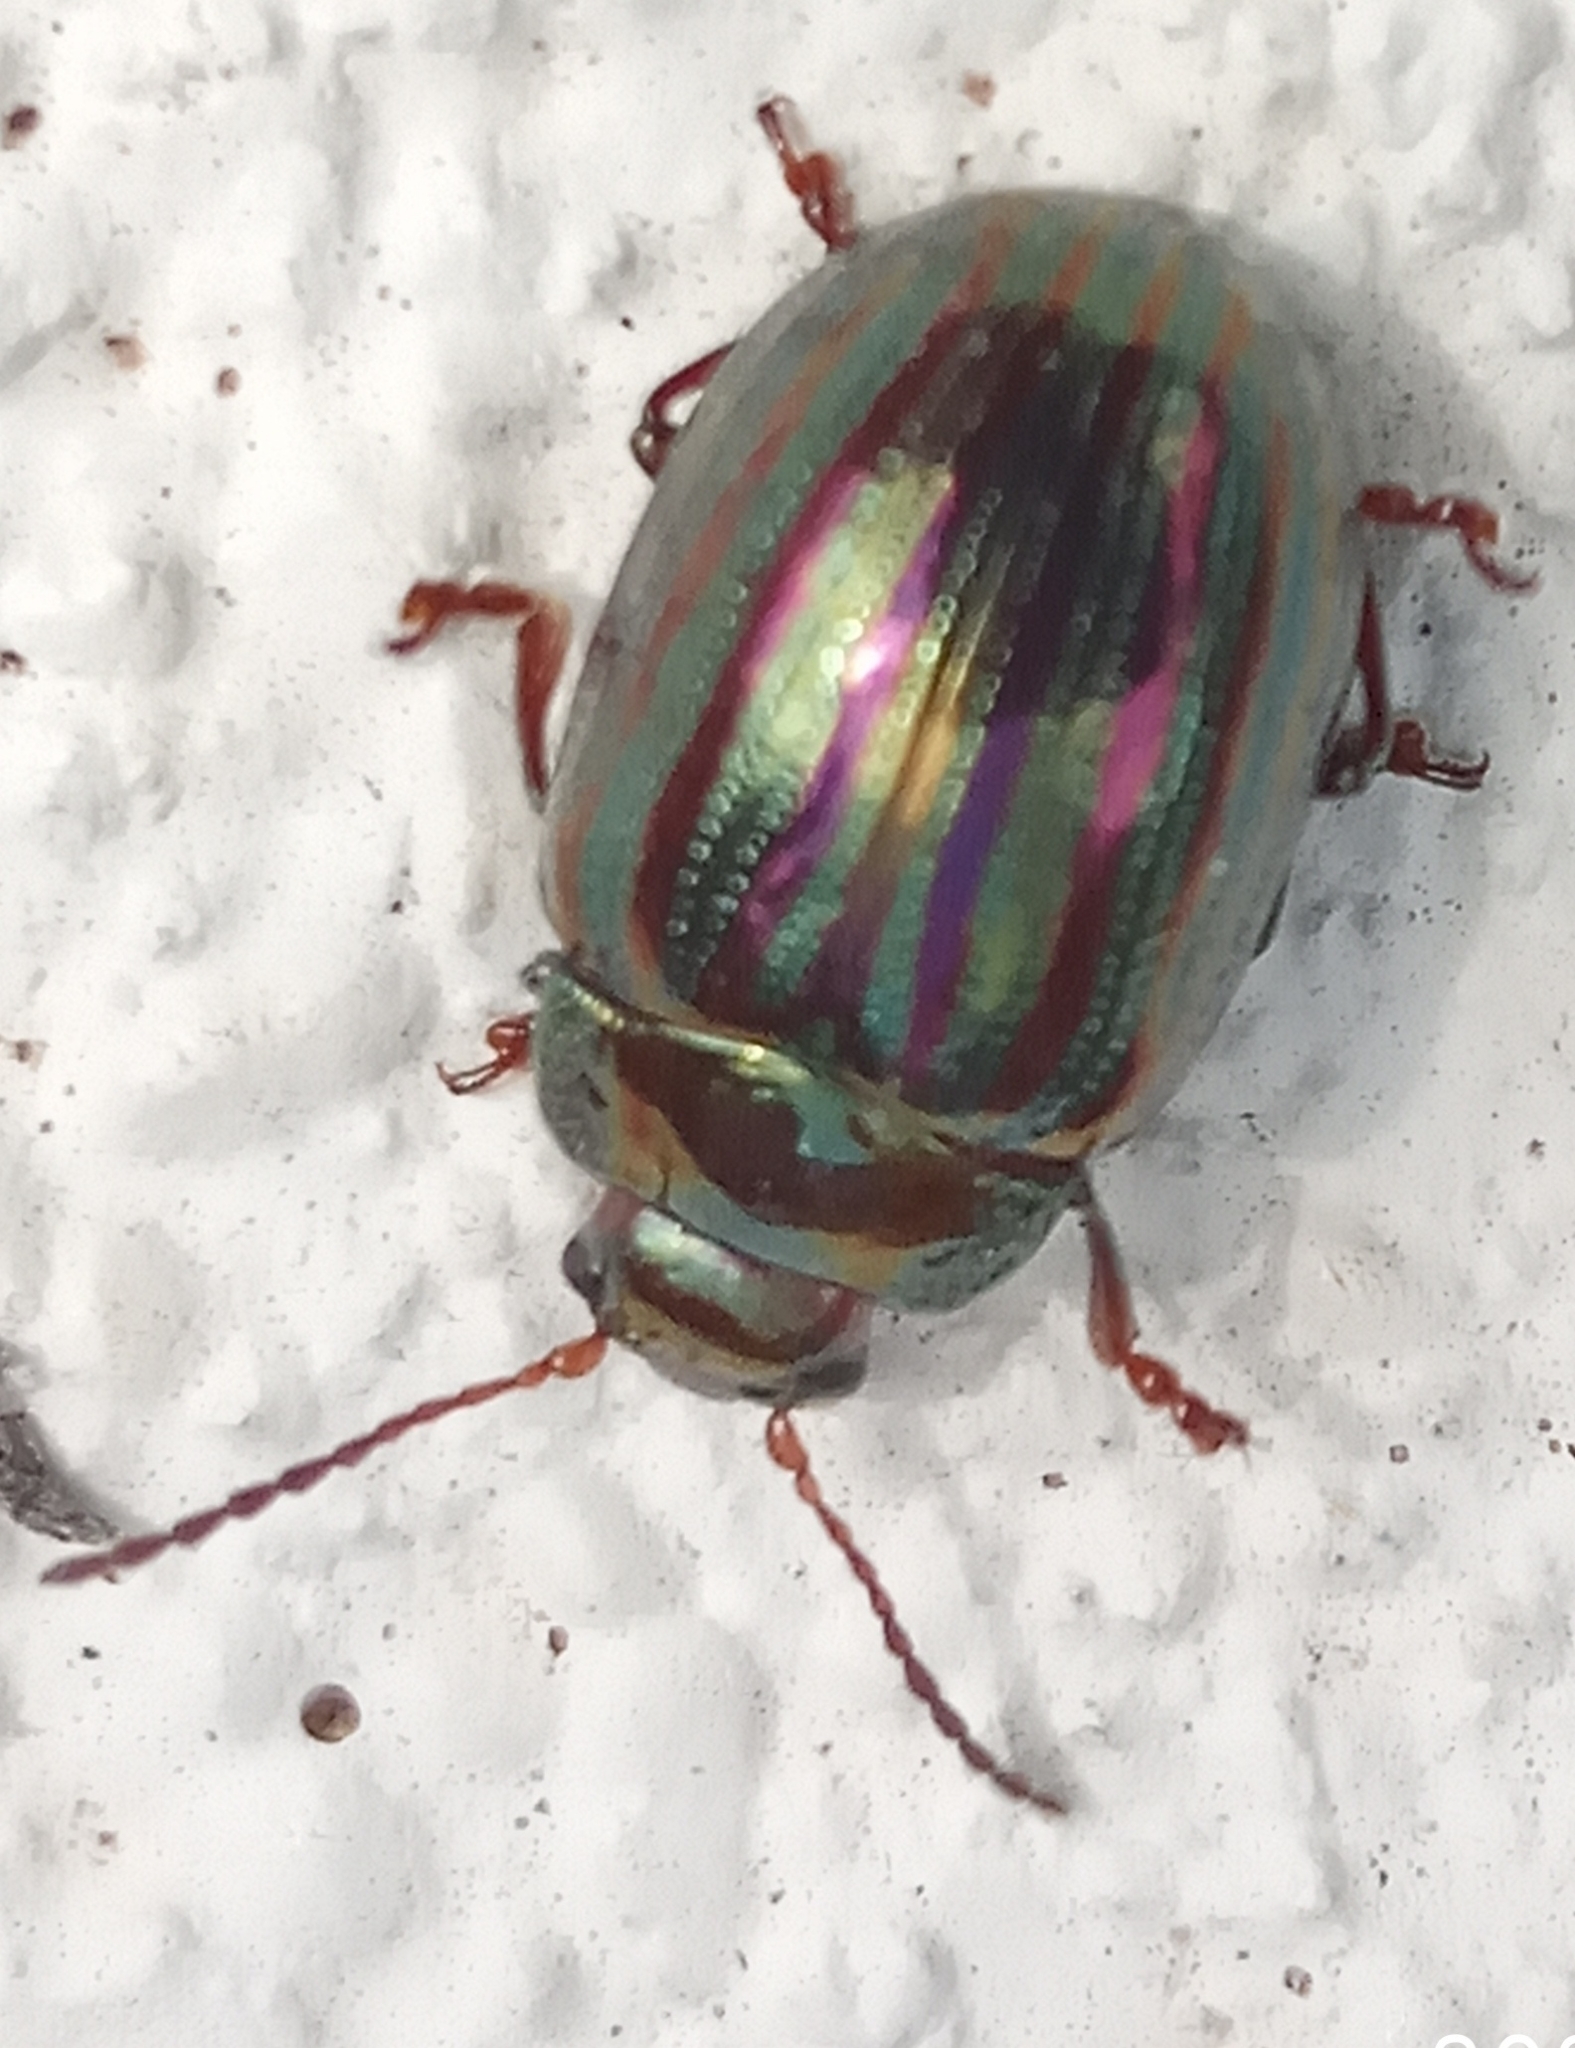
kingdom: Animalia
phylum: Arthropoda
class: Insecta
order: Coleoptera
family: Chrysomelidae
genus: Chrysolina
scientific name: Chrysolina americana
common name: Rosemary beetle
